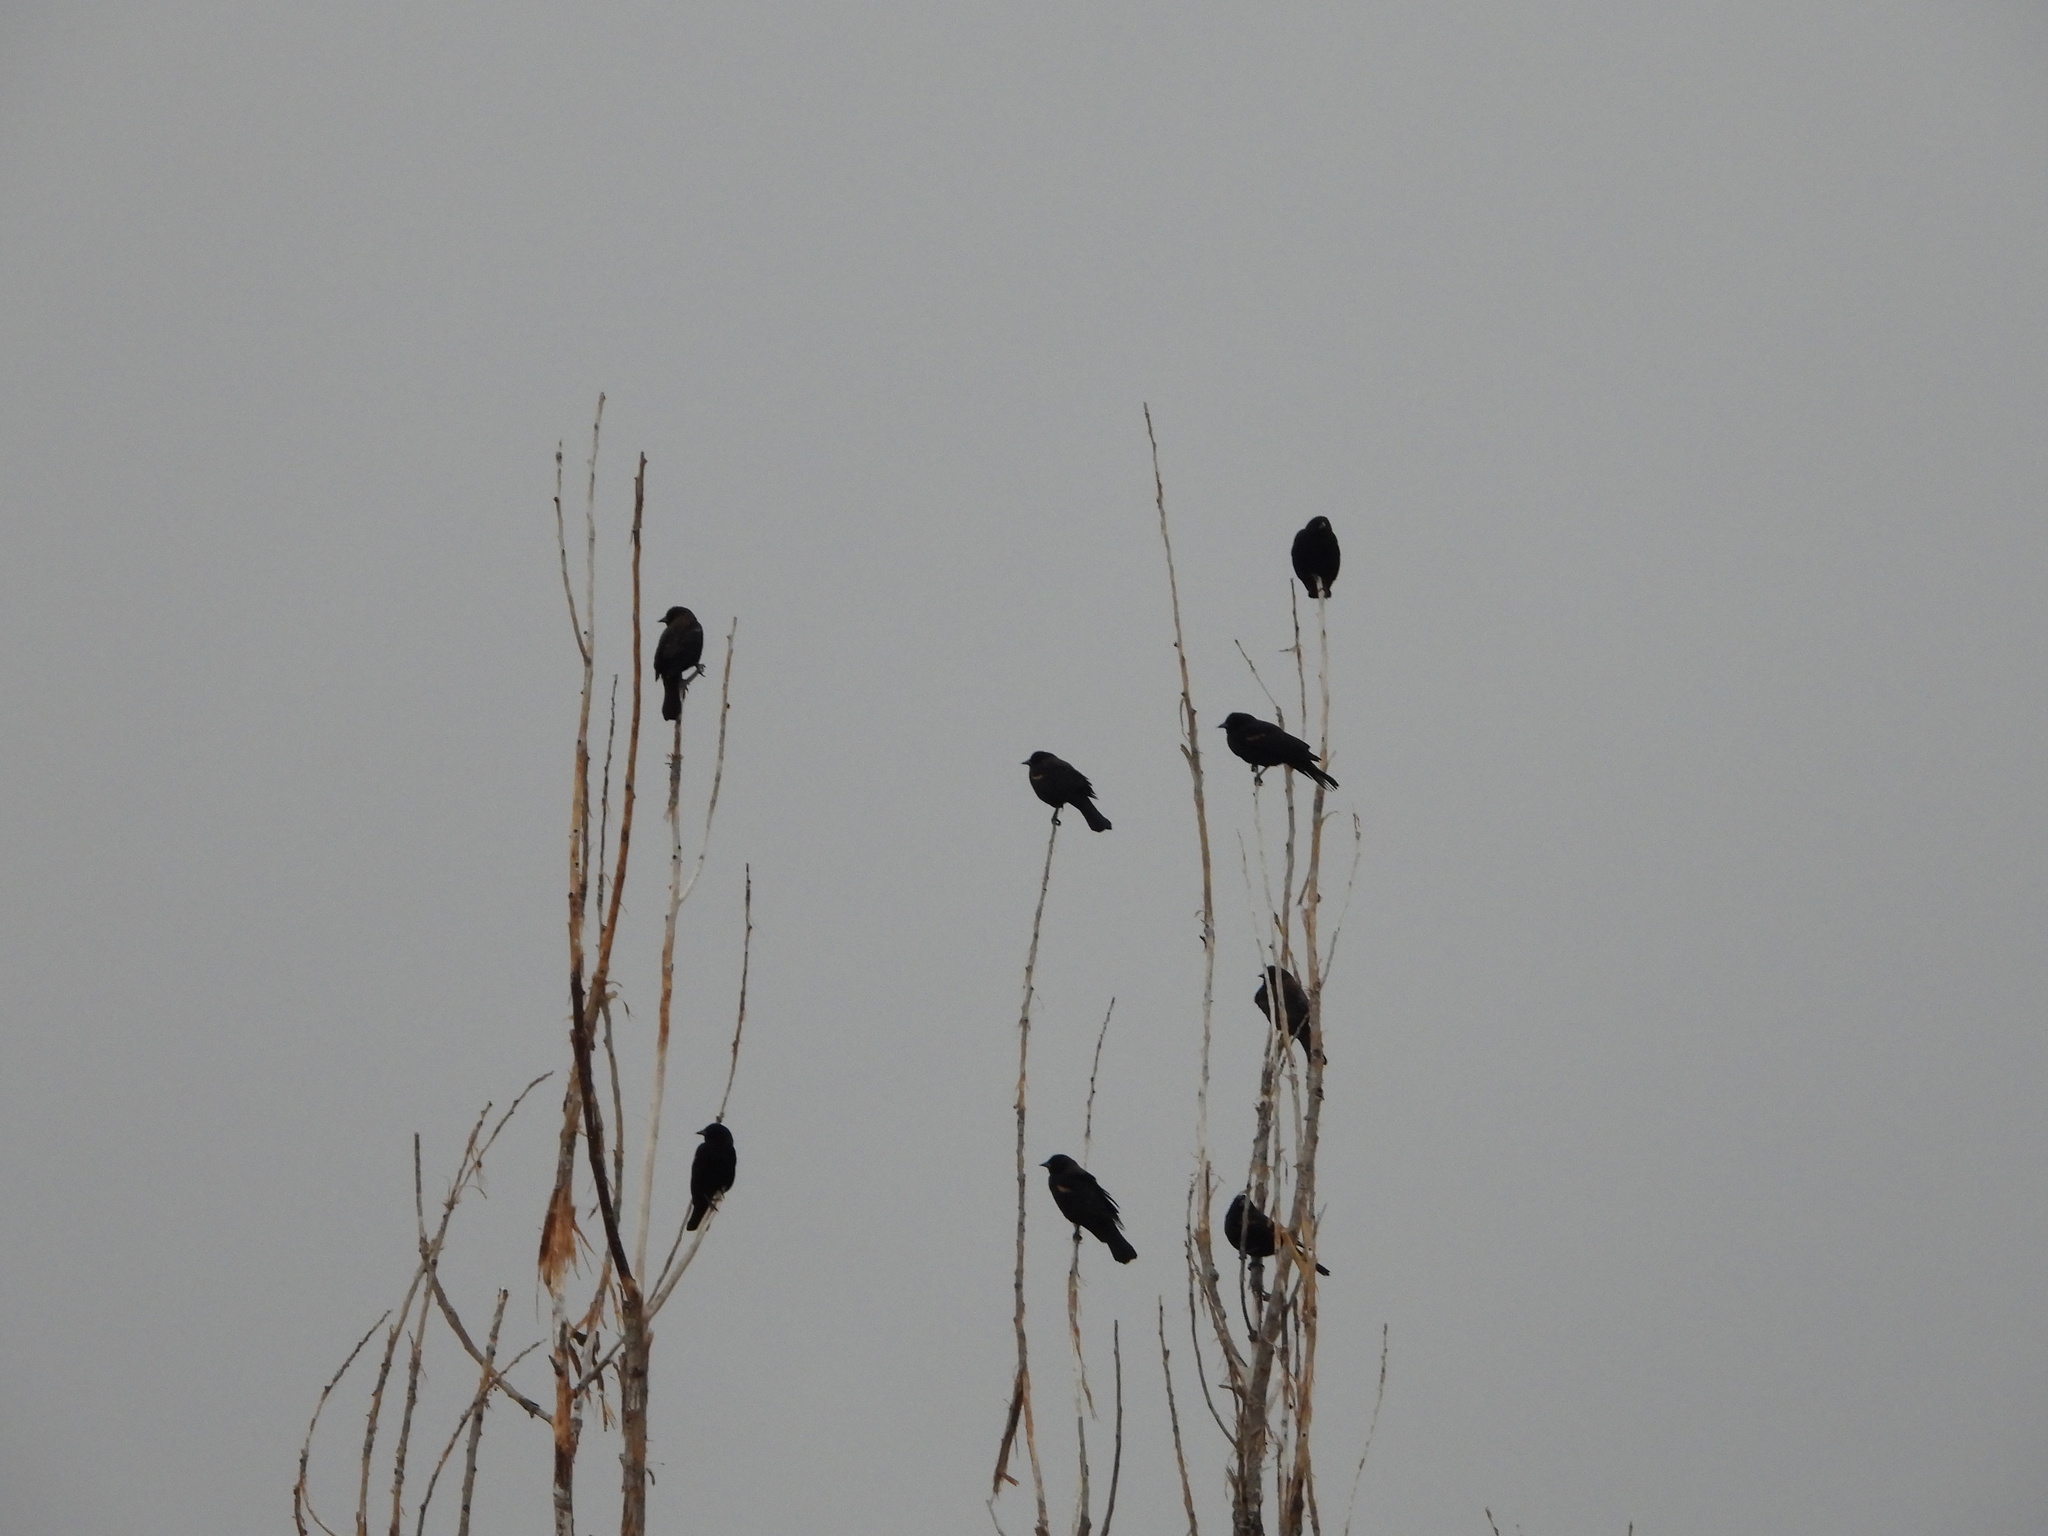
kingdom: Animalia
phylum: Chordata
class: Aves
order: Passeriformes
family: Icteridae
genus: Agelaius
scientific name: Agelaius phoeniceus
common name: Red-winged blackbird
